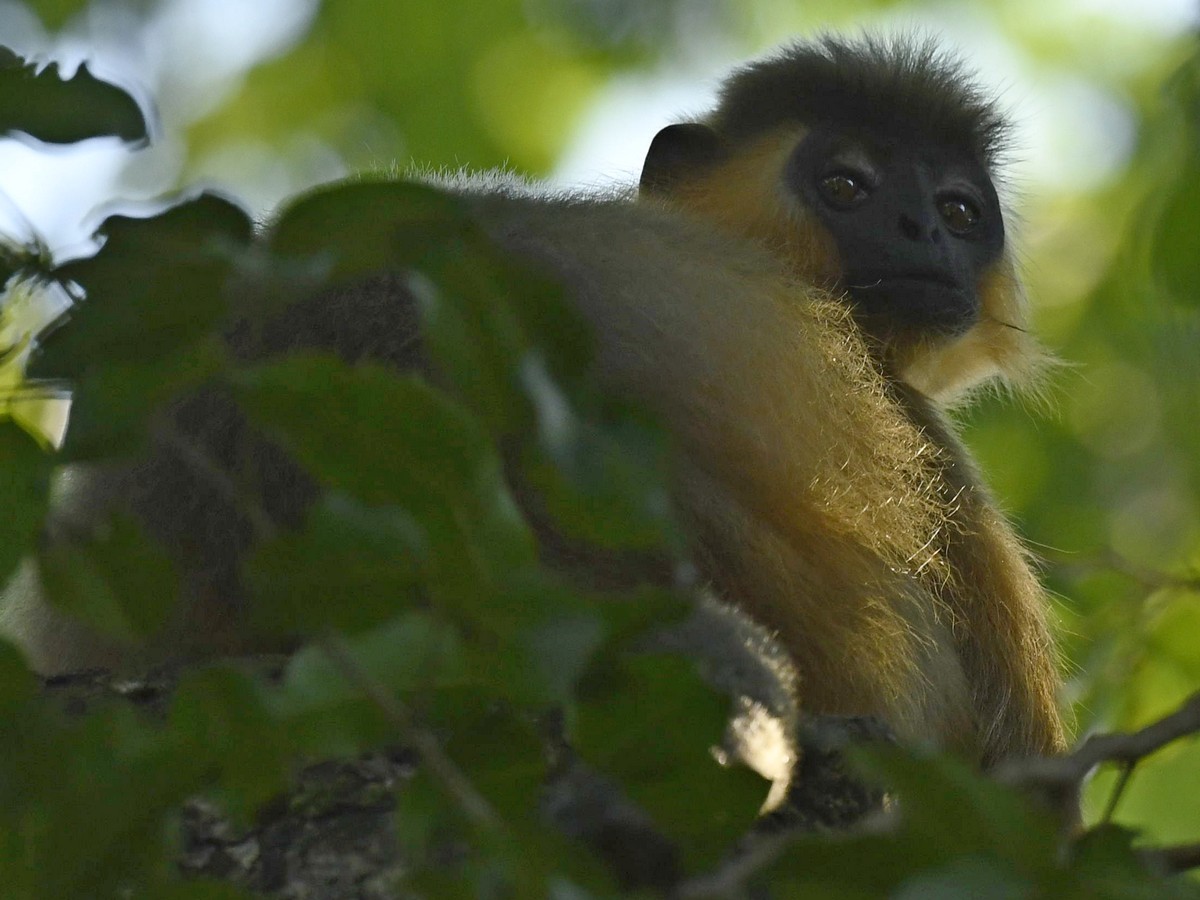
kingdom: Animalia
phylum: Chordata
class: Mammalia
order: Primates
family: Cercopithecidae
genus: Trachypithecus
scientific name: Trachypithecus pileatus
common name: Capped langur
